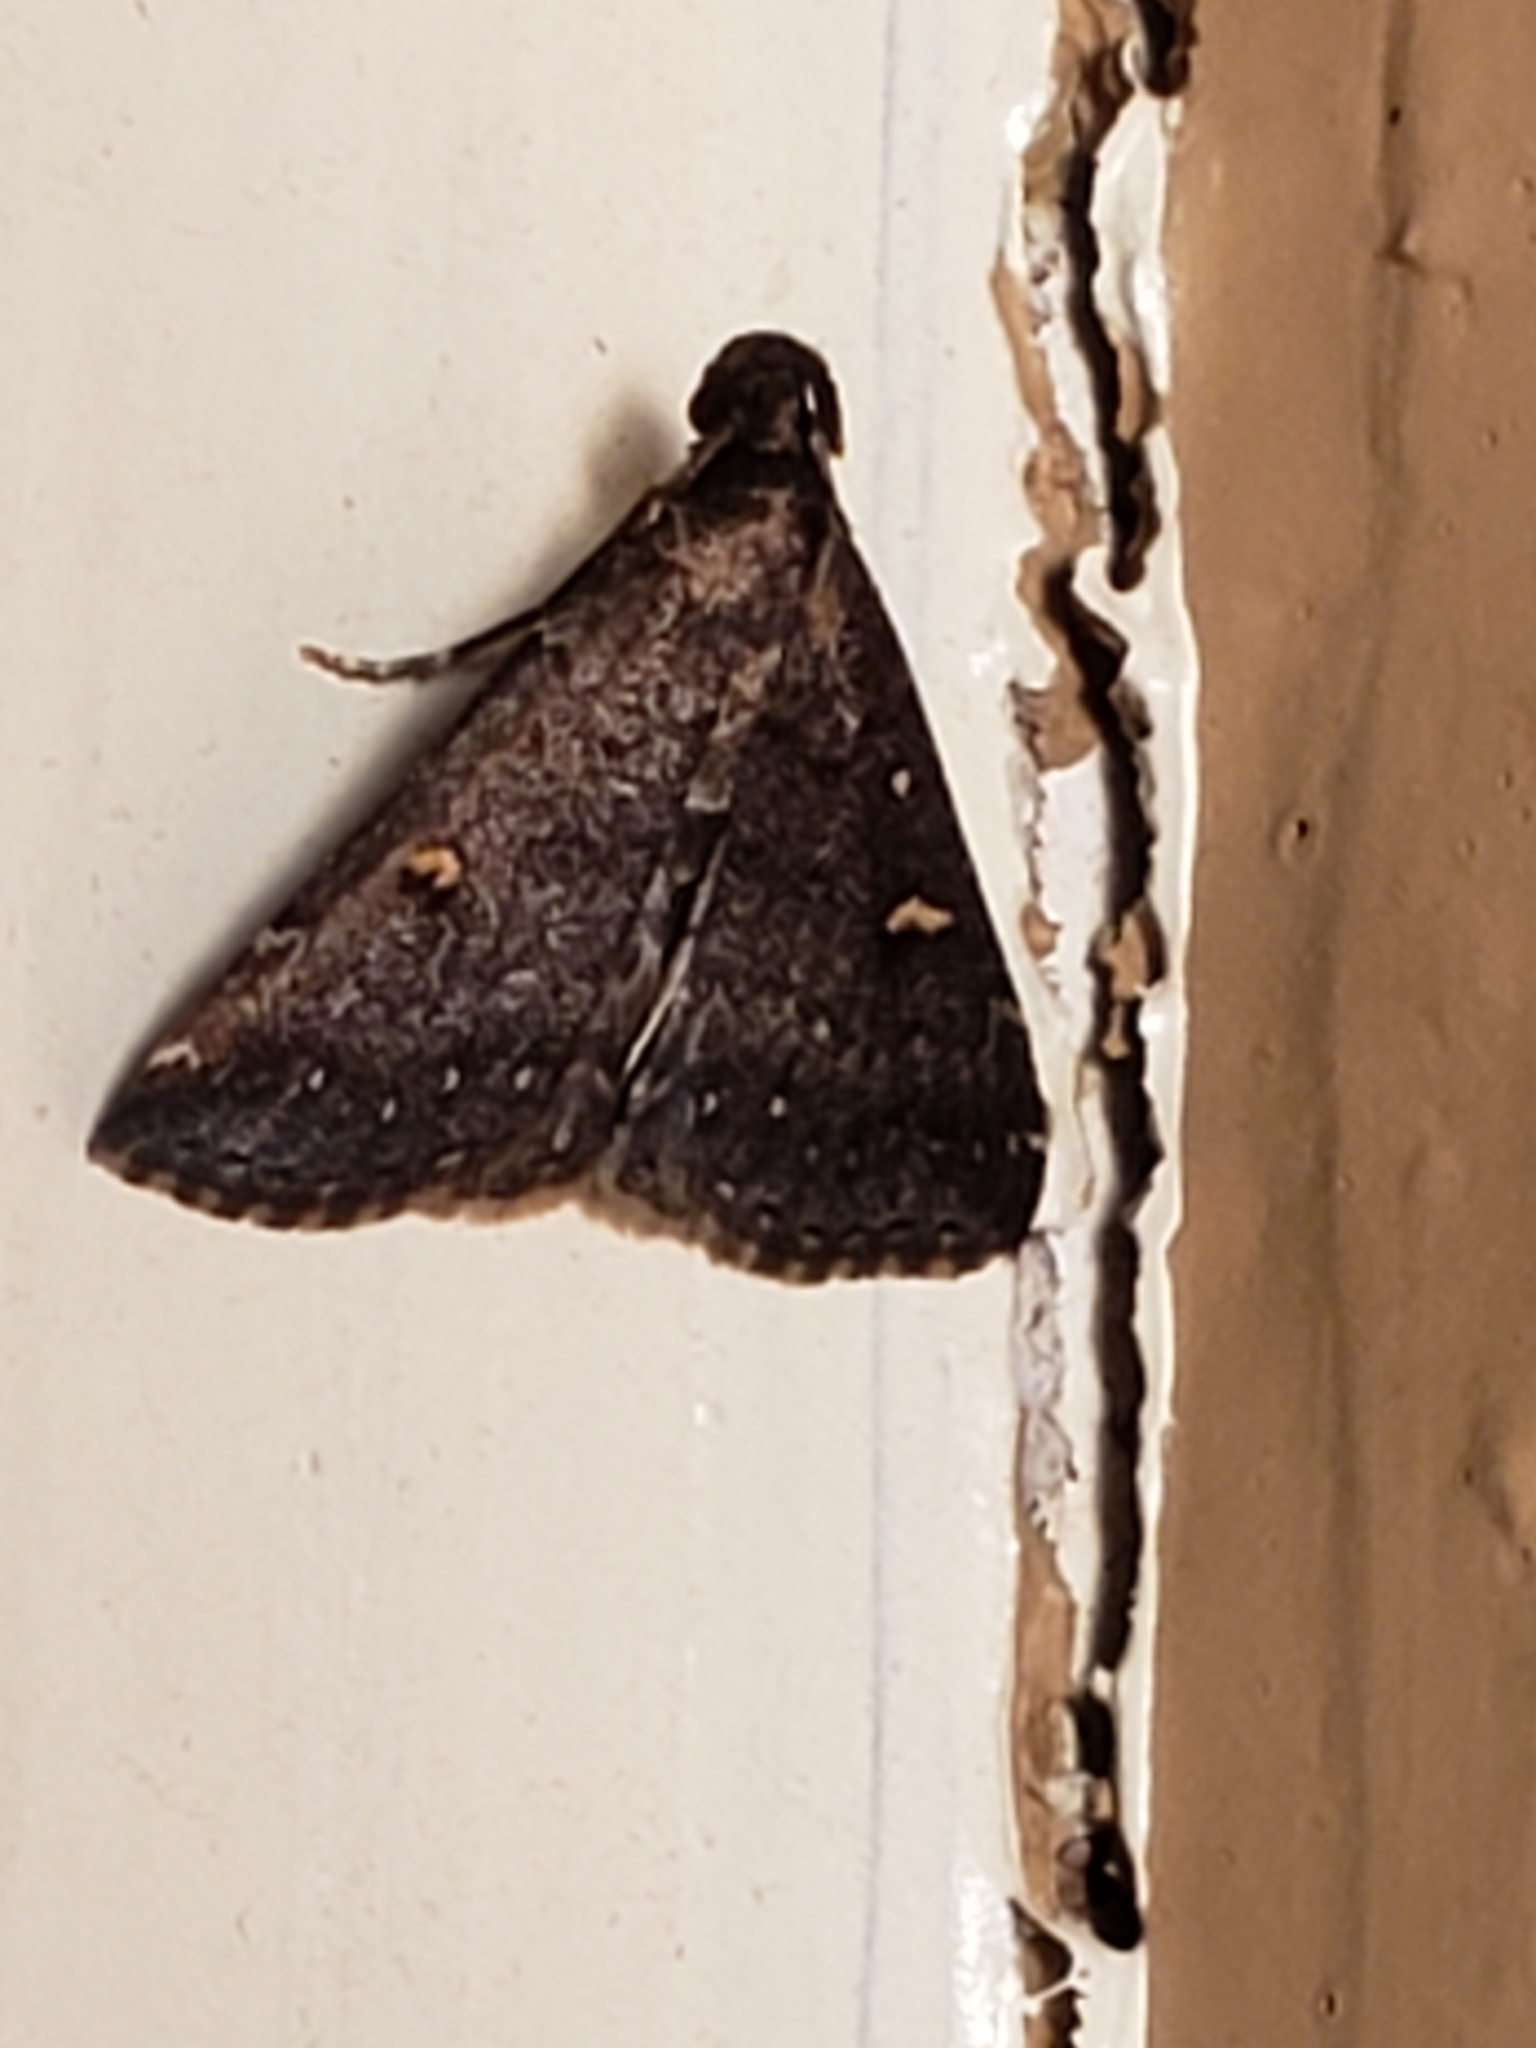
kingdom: Animalia
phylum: Arthropoda
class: Insecta
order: Lepidoptera
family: Erebidae
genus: Tetanolita
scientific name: Tetanolita mynesalis
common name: Smoky tetanolita moth
